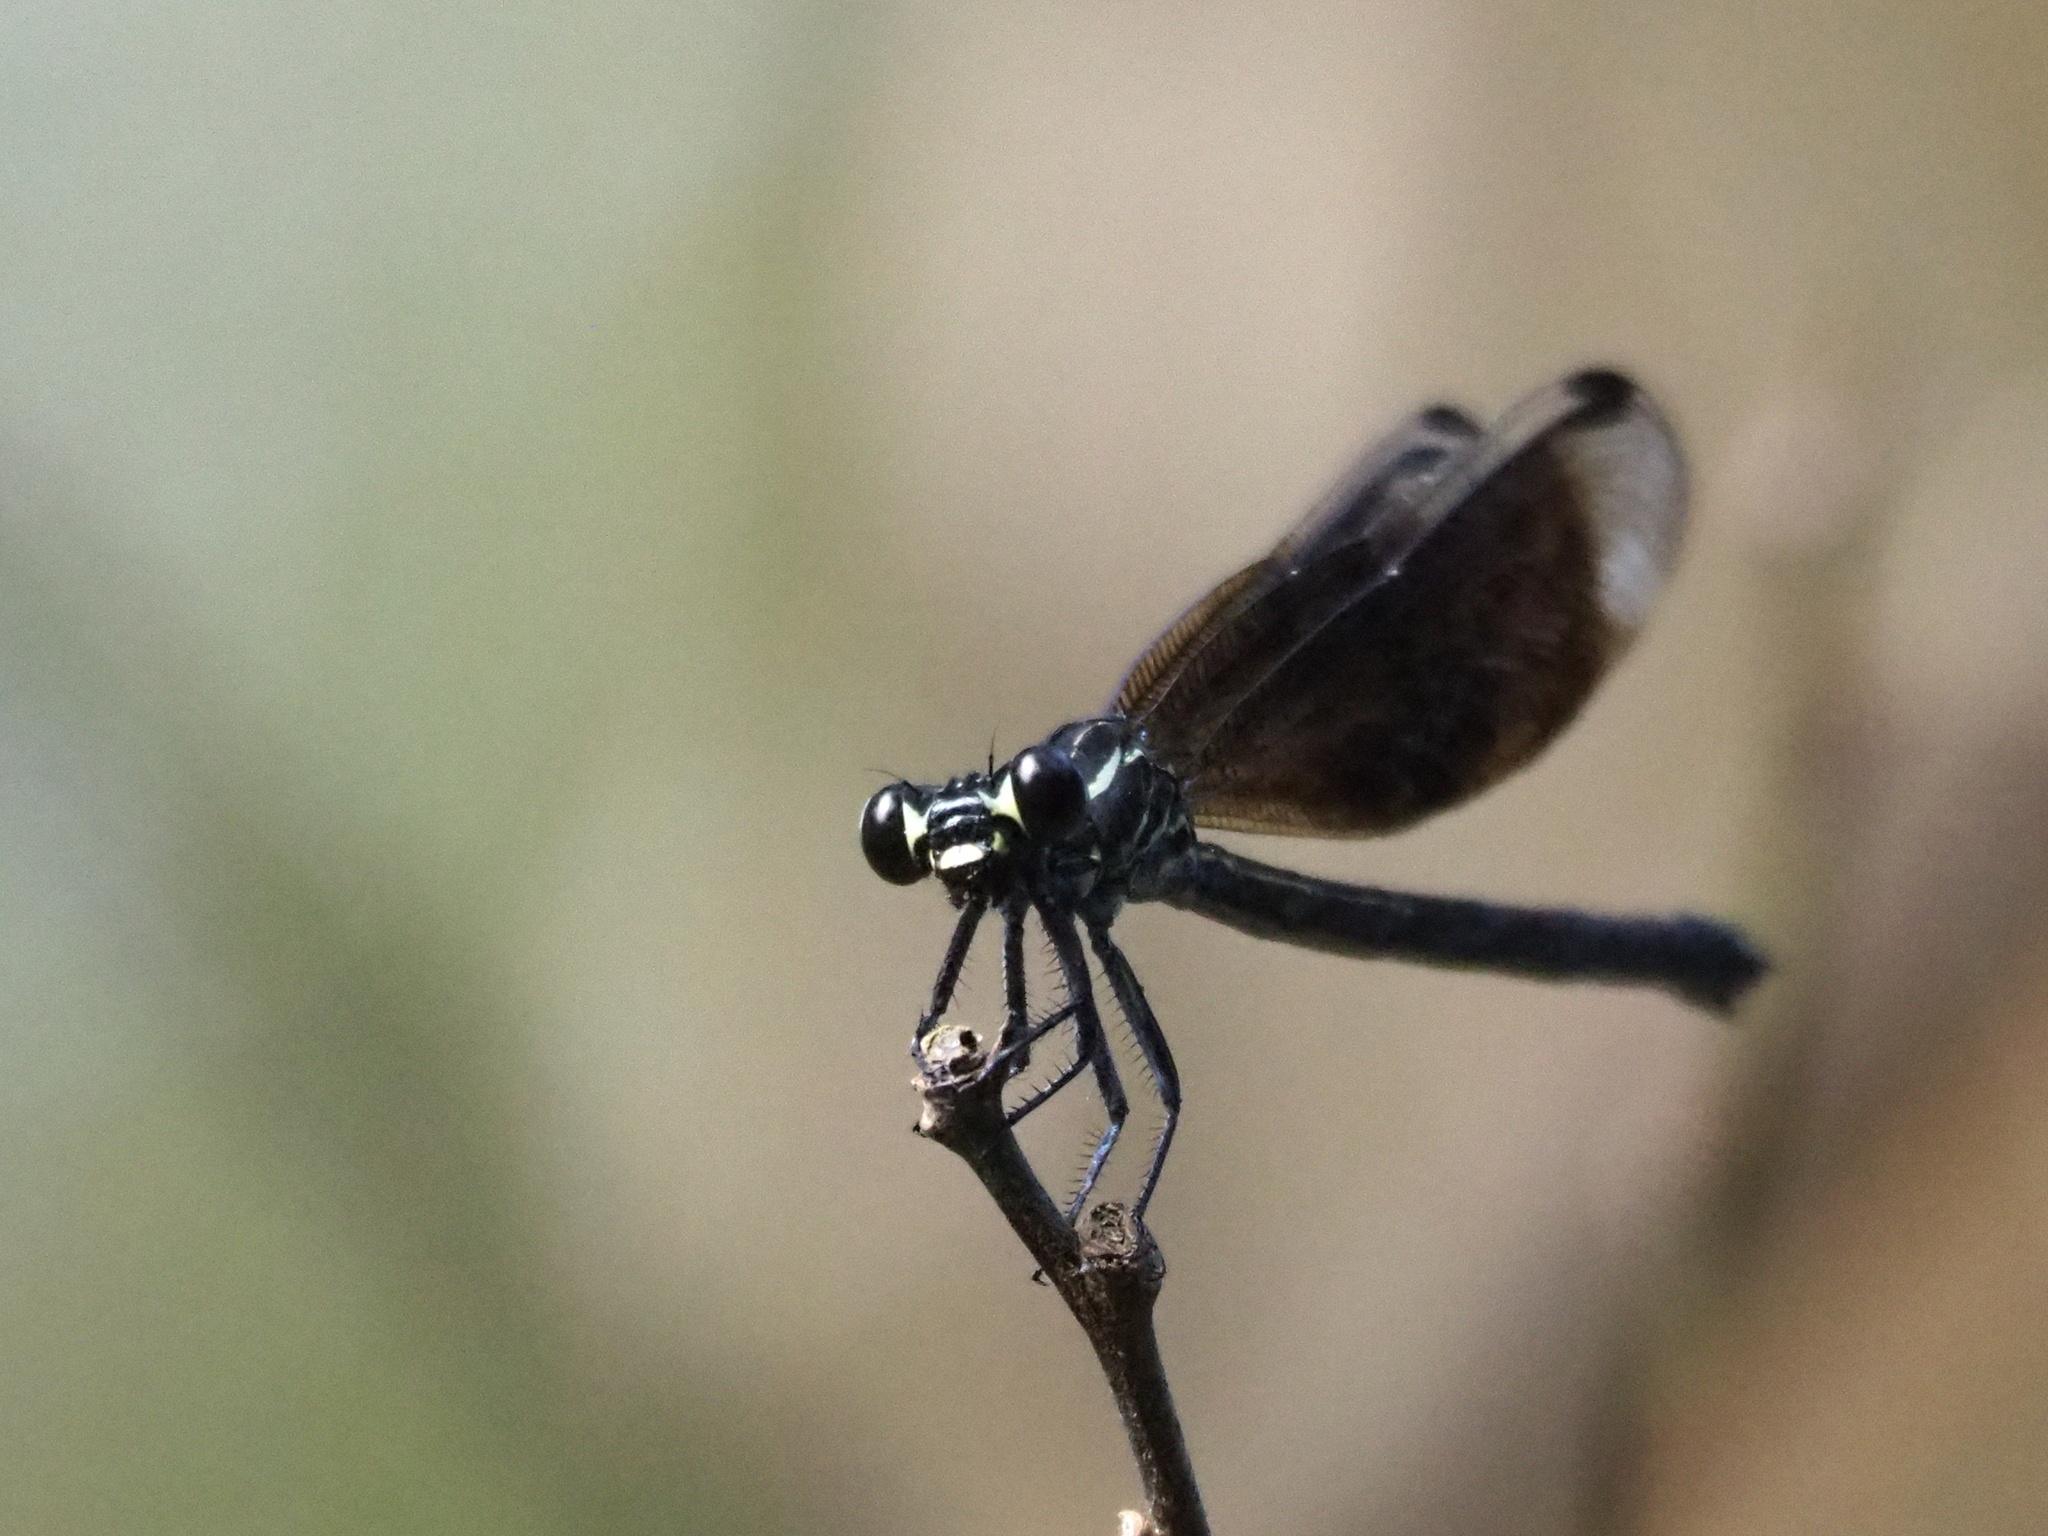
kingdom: Animalia
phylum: Arthropoda
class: Insecta
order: Odonata
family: Euphaeidae
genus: Euphaea
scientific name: Euphaea formosa
